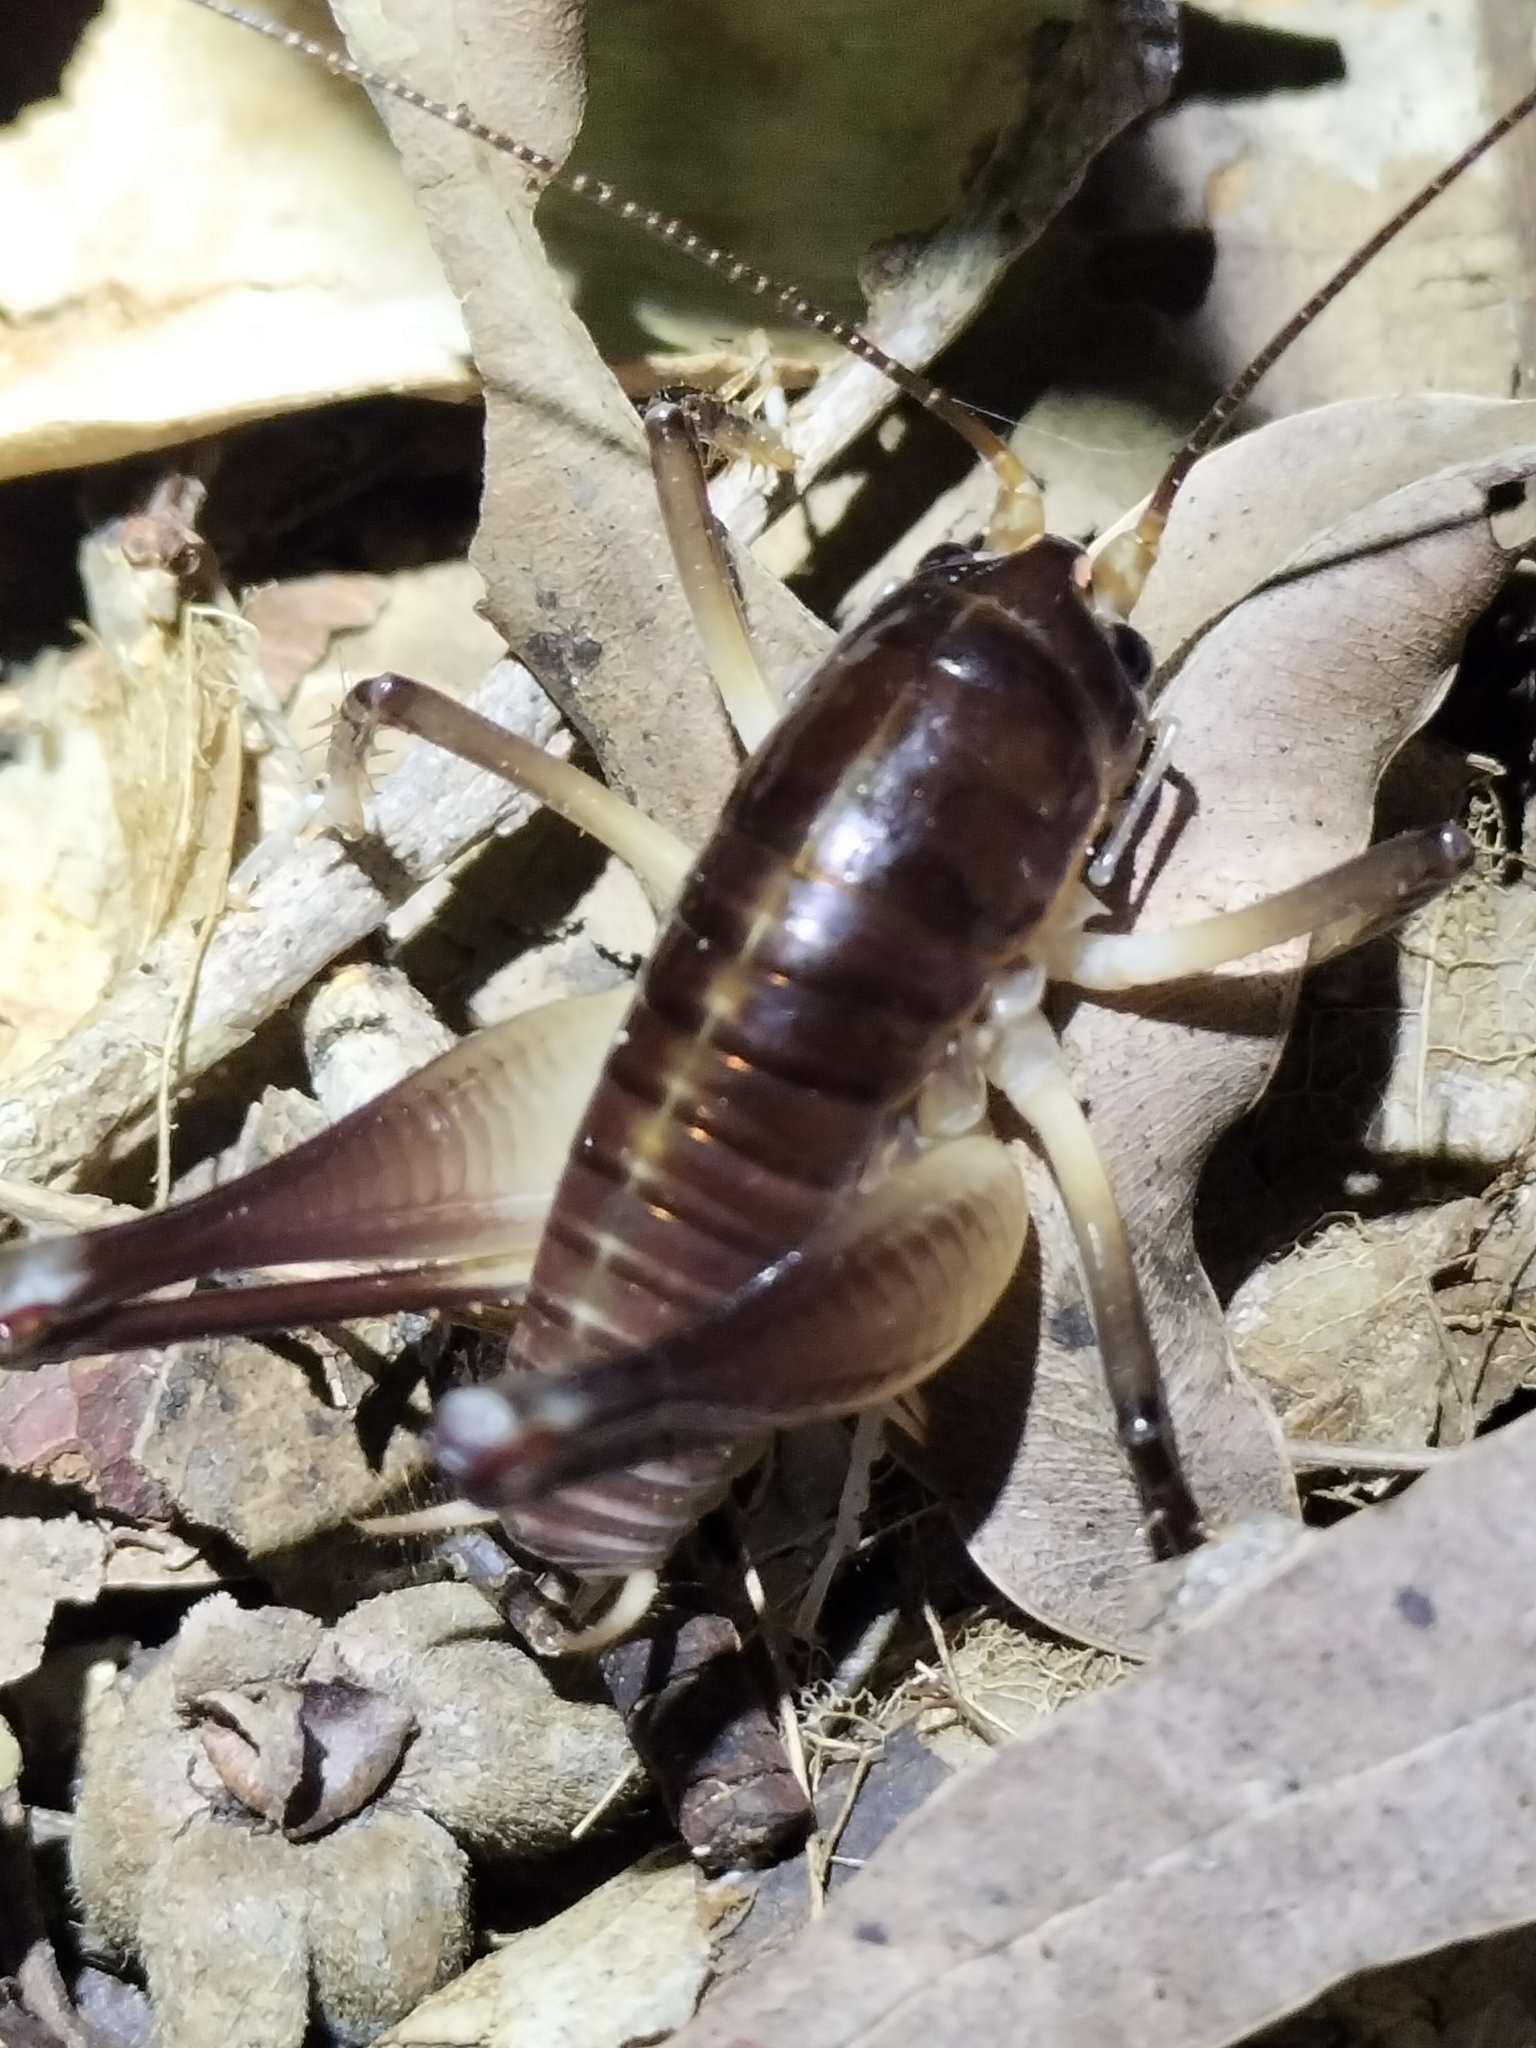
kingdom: Animalia
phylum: Arthropoda
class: Insecta
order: Orthoptera
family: Anostostomatidae
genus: Penalva
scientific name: Penalva flavocalceata
